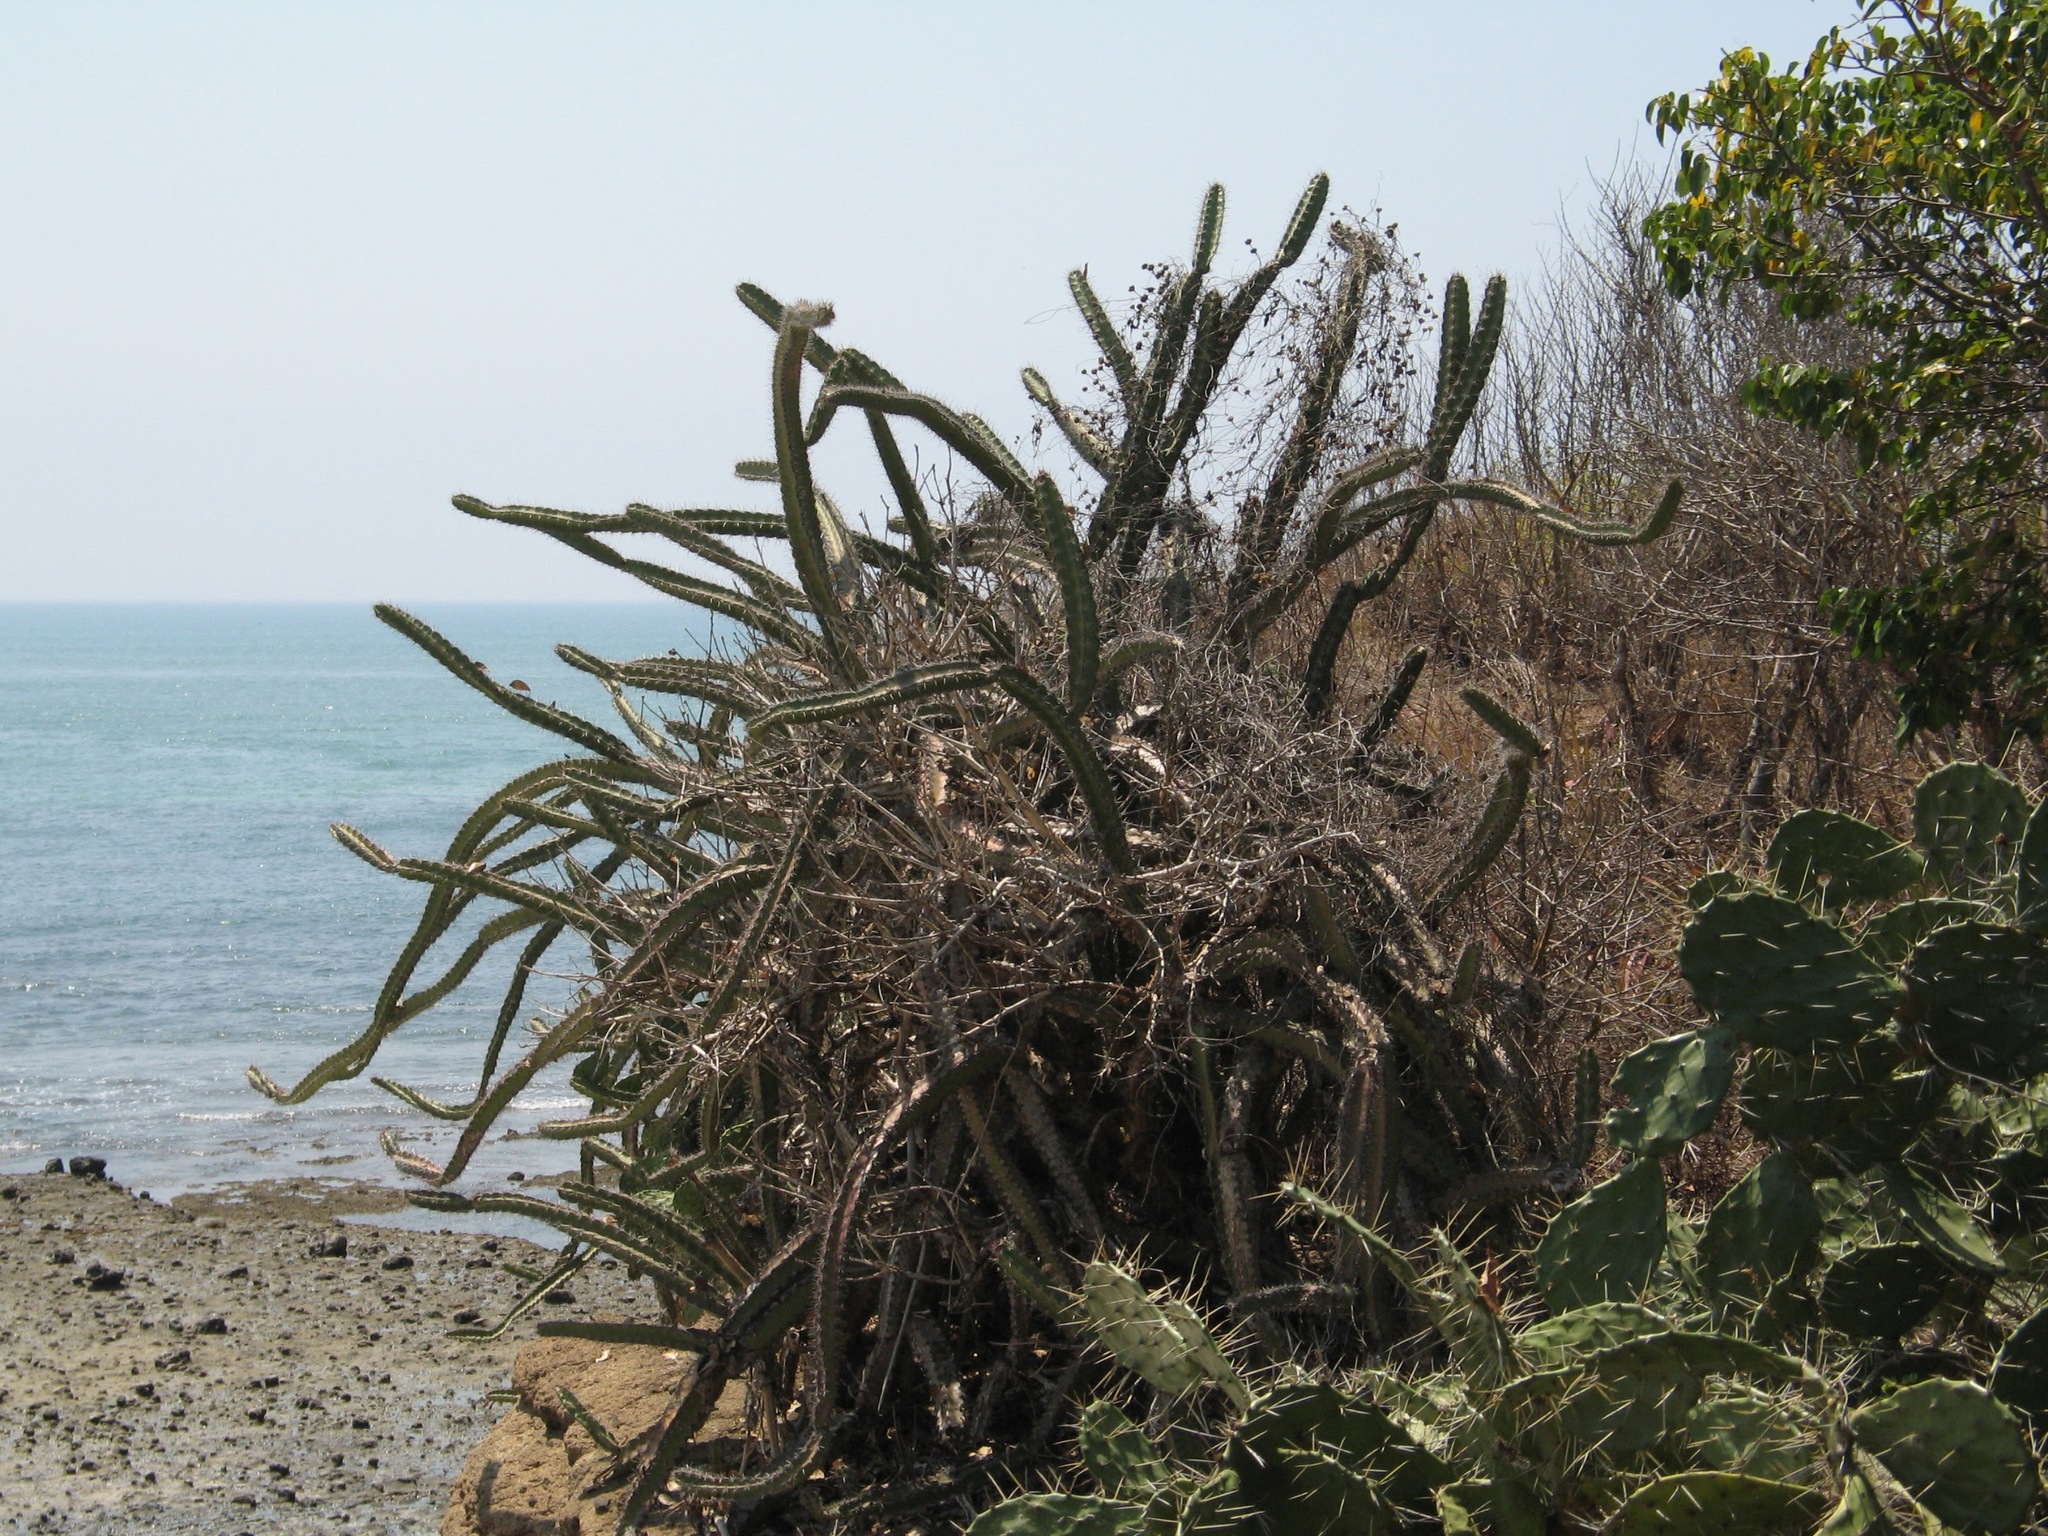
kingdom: Plantae
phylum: Tracheophyta
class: Magnoliopsida
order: Caryophyllales
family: Cactaceae
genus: Stenocereus
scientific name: Stenocereus standleyi
